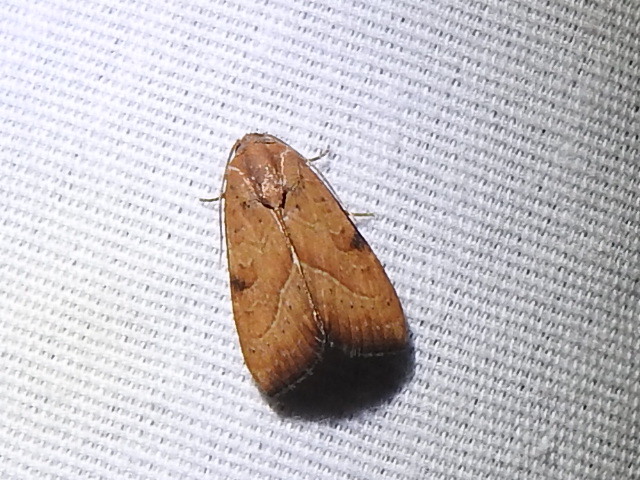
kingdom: Animalia
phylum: Arthropoda
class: Insecta
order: Lepidoptera
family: Noctuidae
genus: Galgula
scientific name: Galgula partita
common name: Wedgeling
